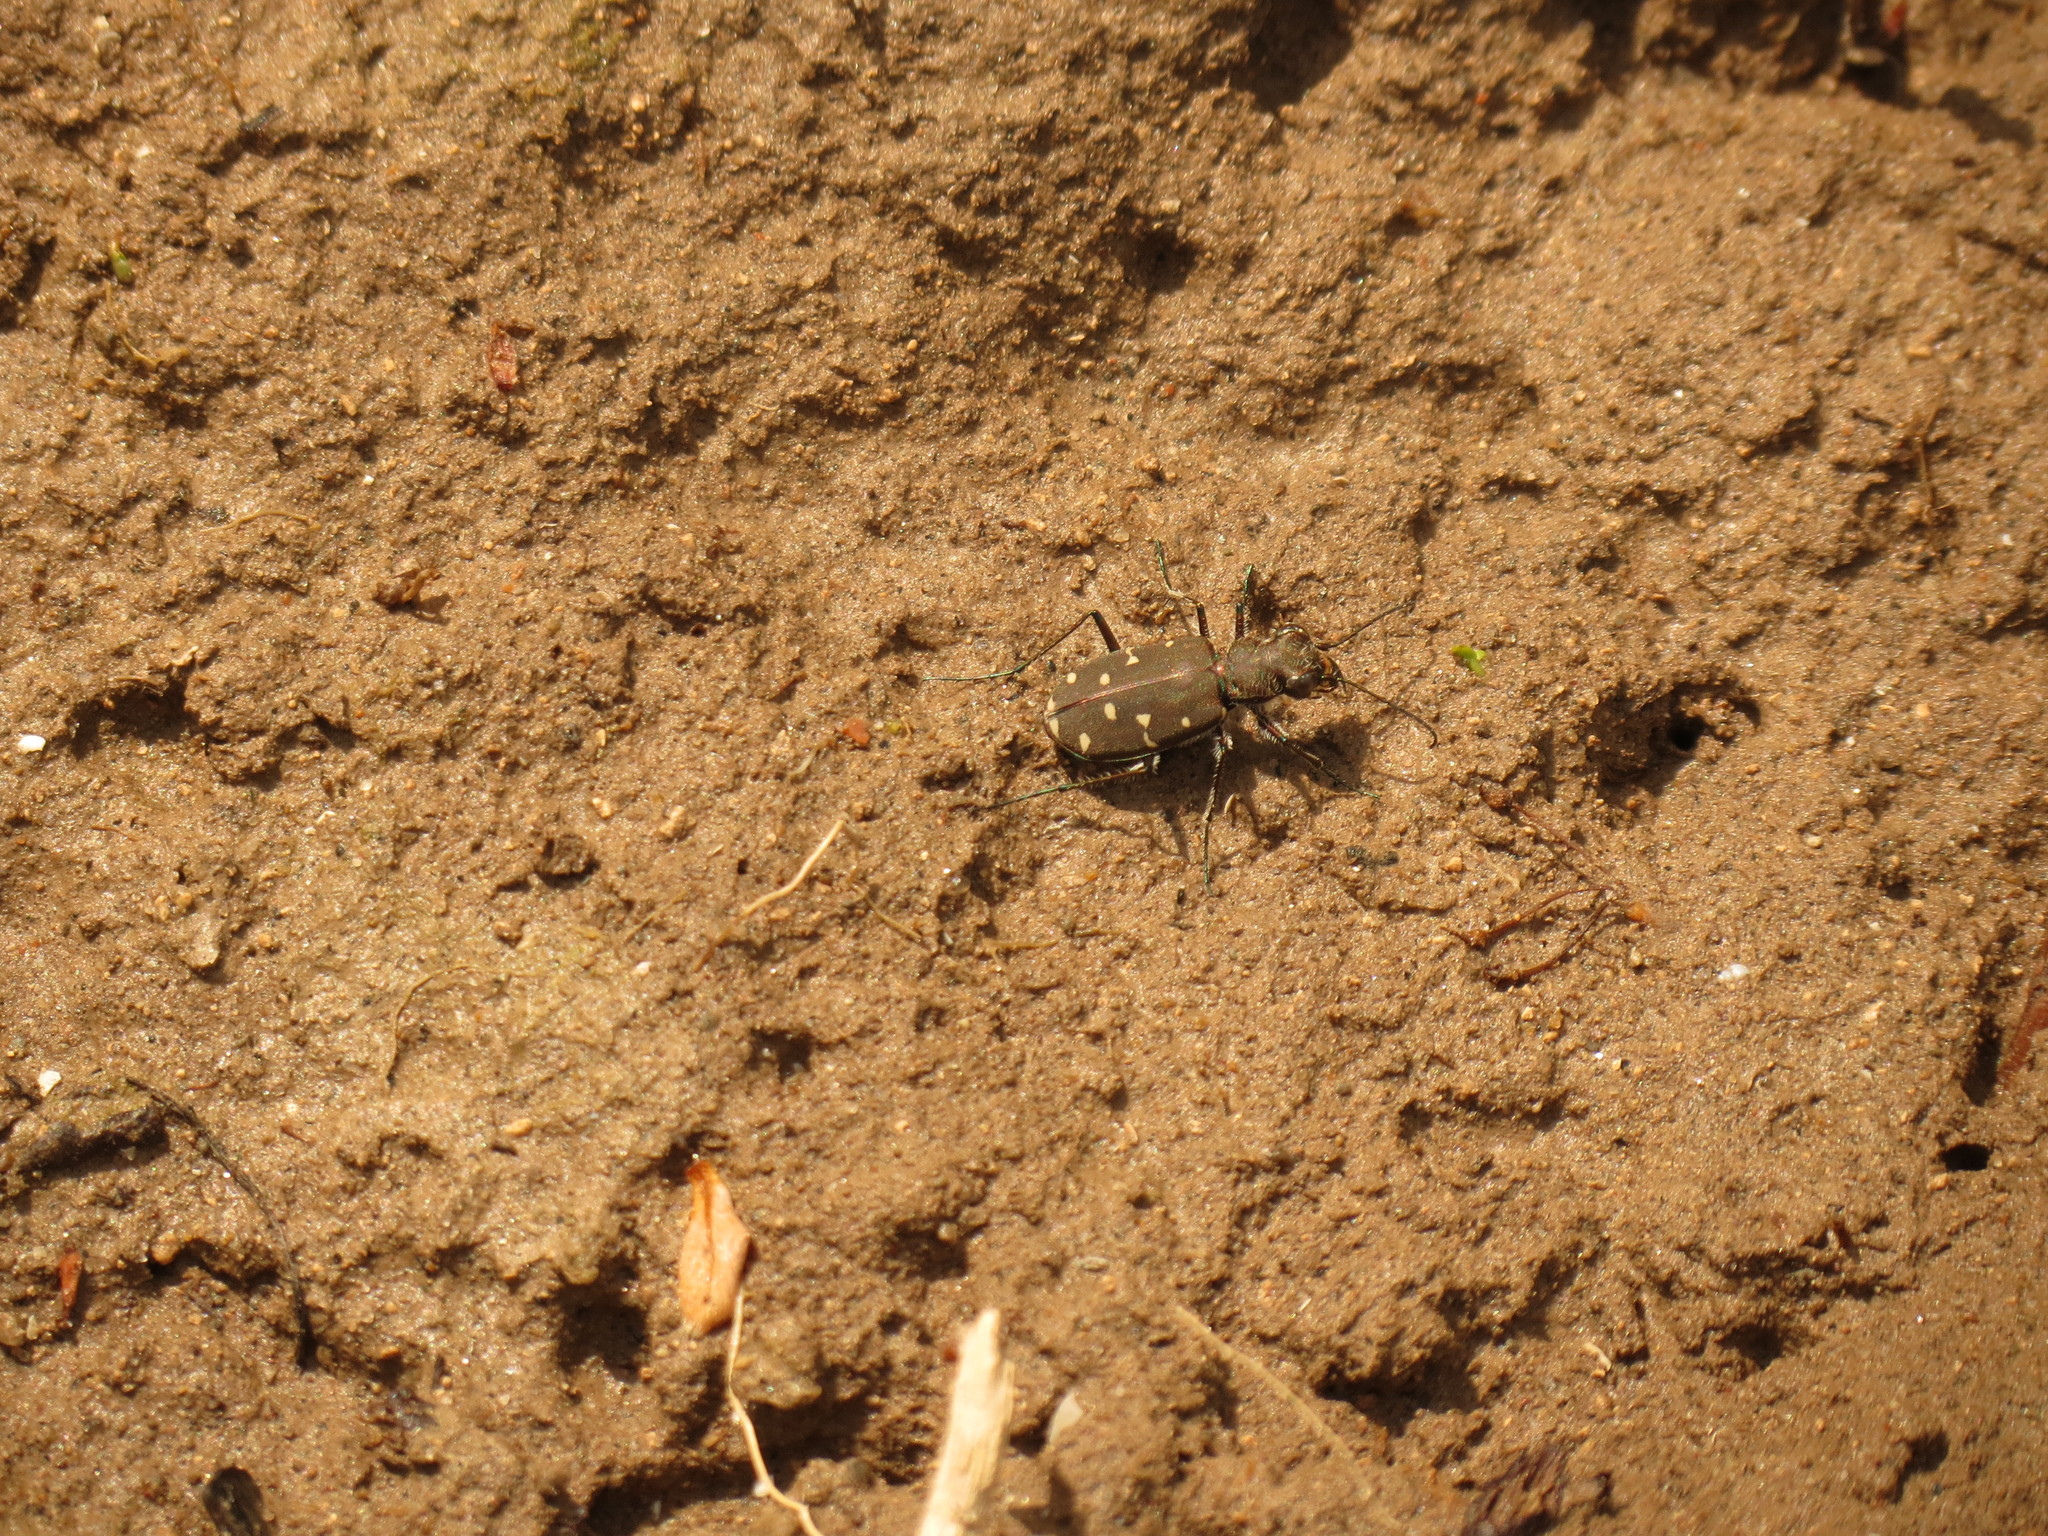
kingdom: Animalia
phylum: Arthropoda
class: Insecta
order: Coleoptera
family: Carabidae
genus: Cicindela
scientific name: Cicindela duodecimguttata
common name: Twelve-spotted tiger beetle
